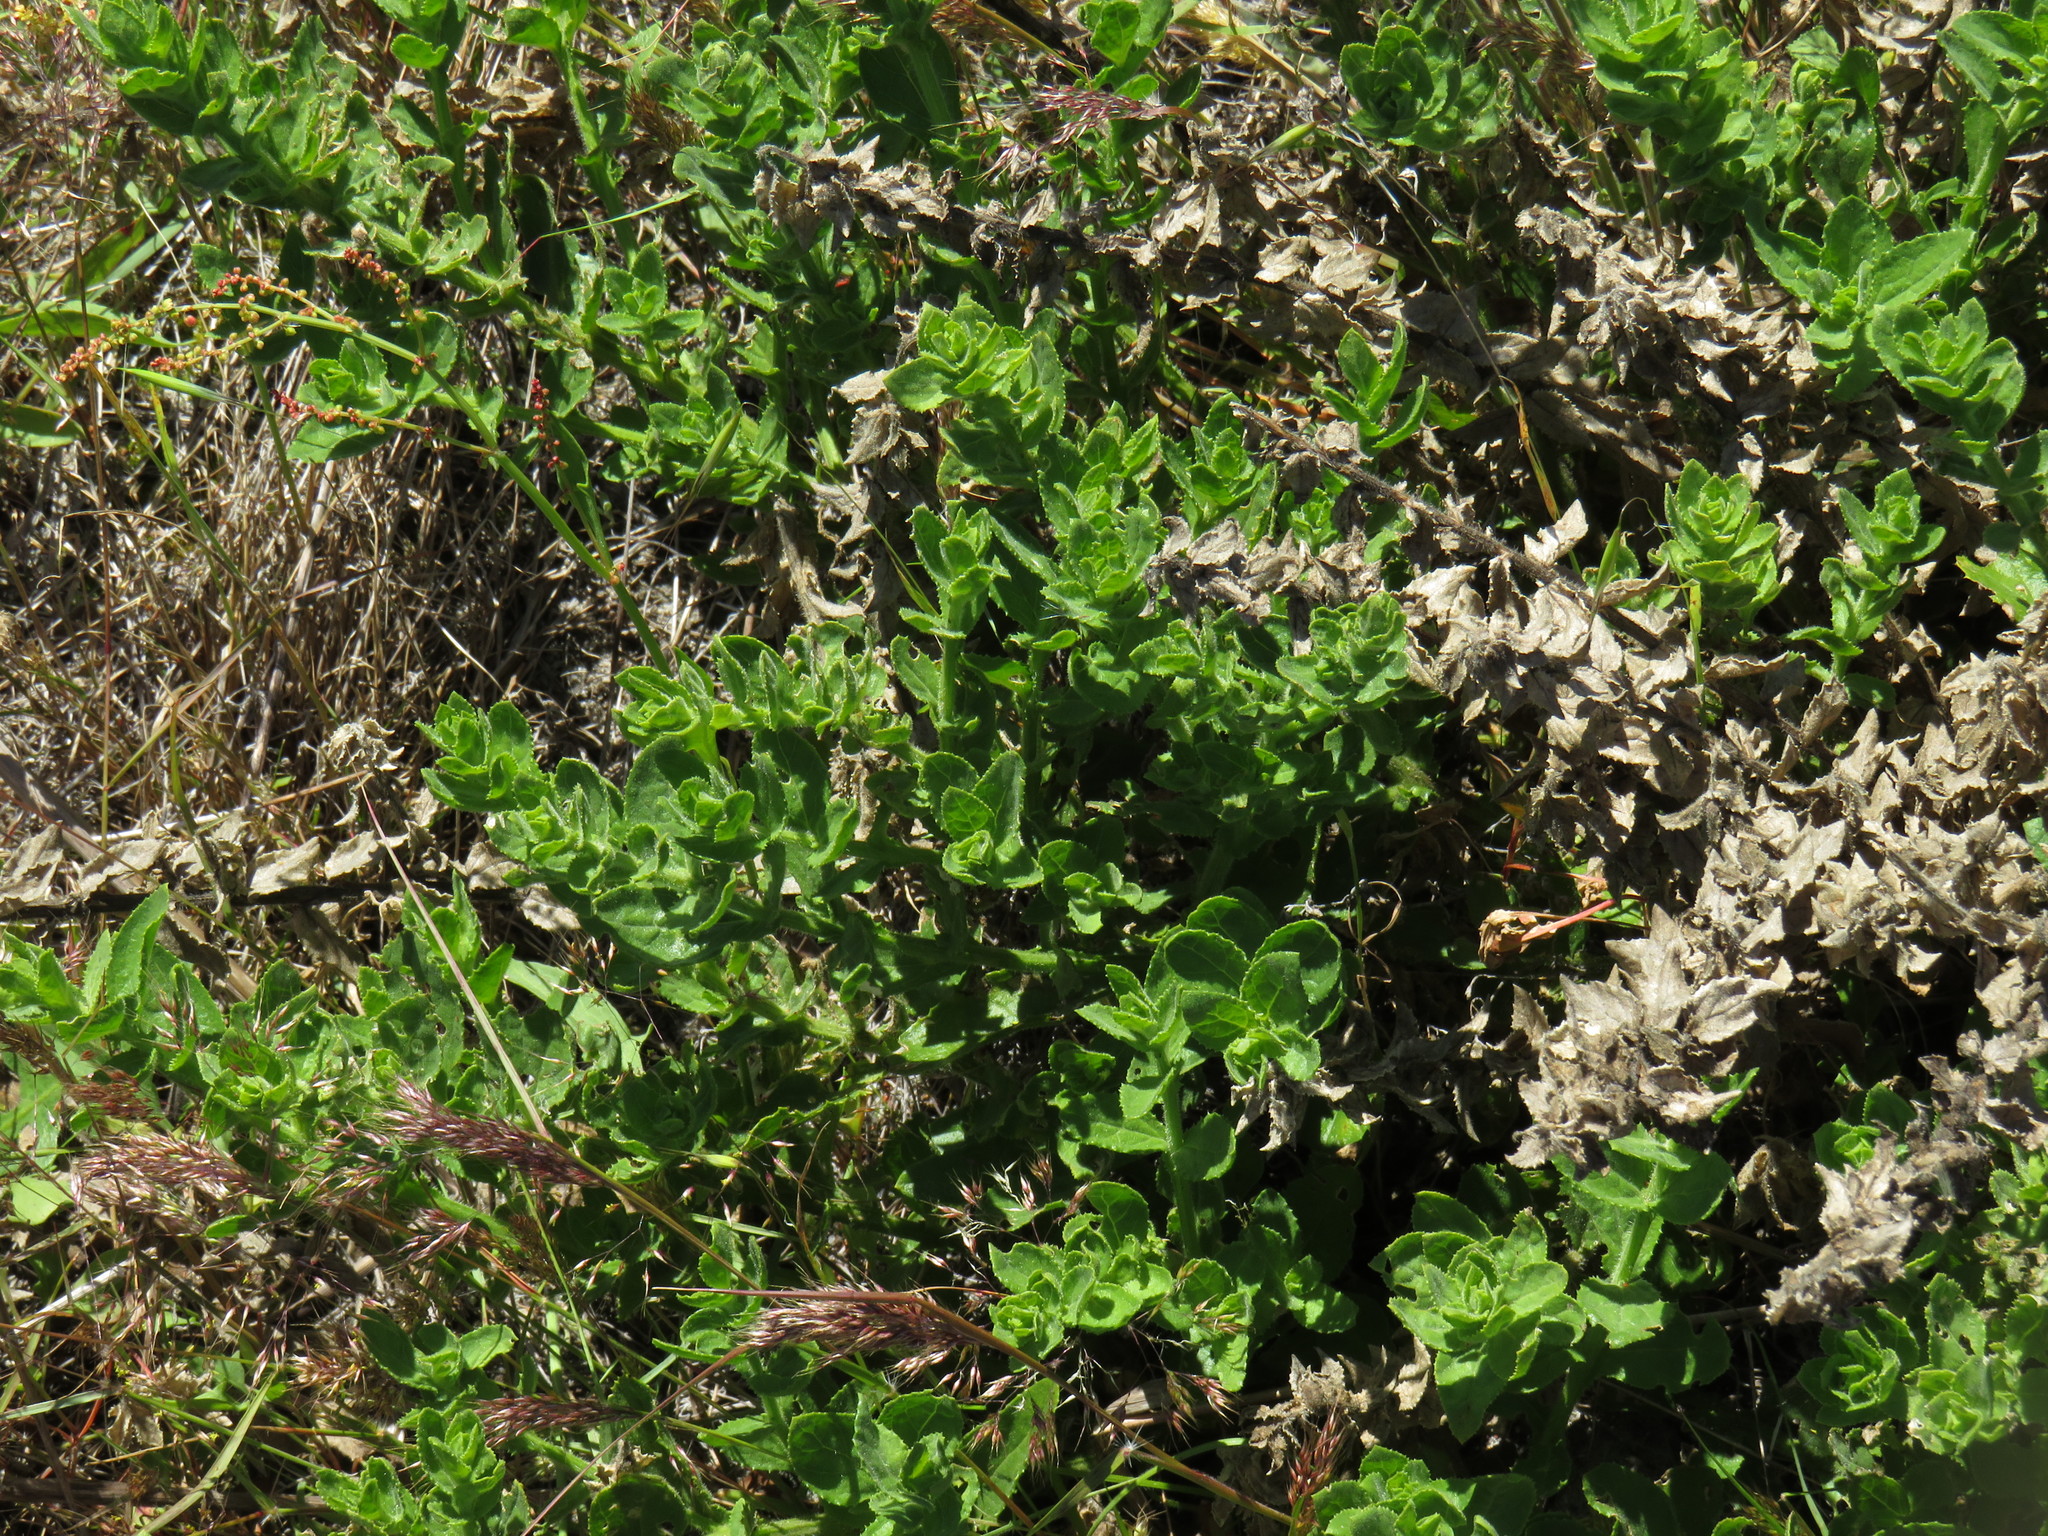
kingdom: Plantae
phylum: Tracheophyta
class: Magnoliopsida
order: Lamiales
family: Scrophulariaceae
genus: Oftia
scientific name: Oftia africana
